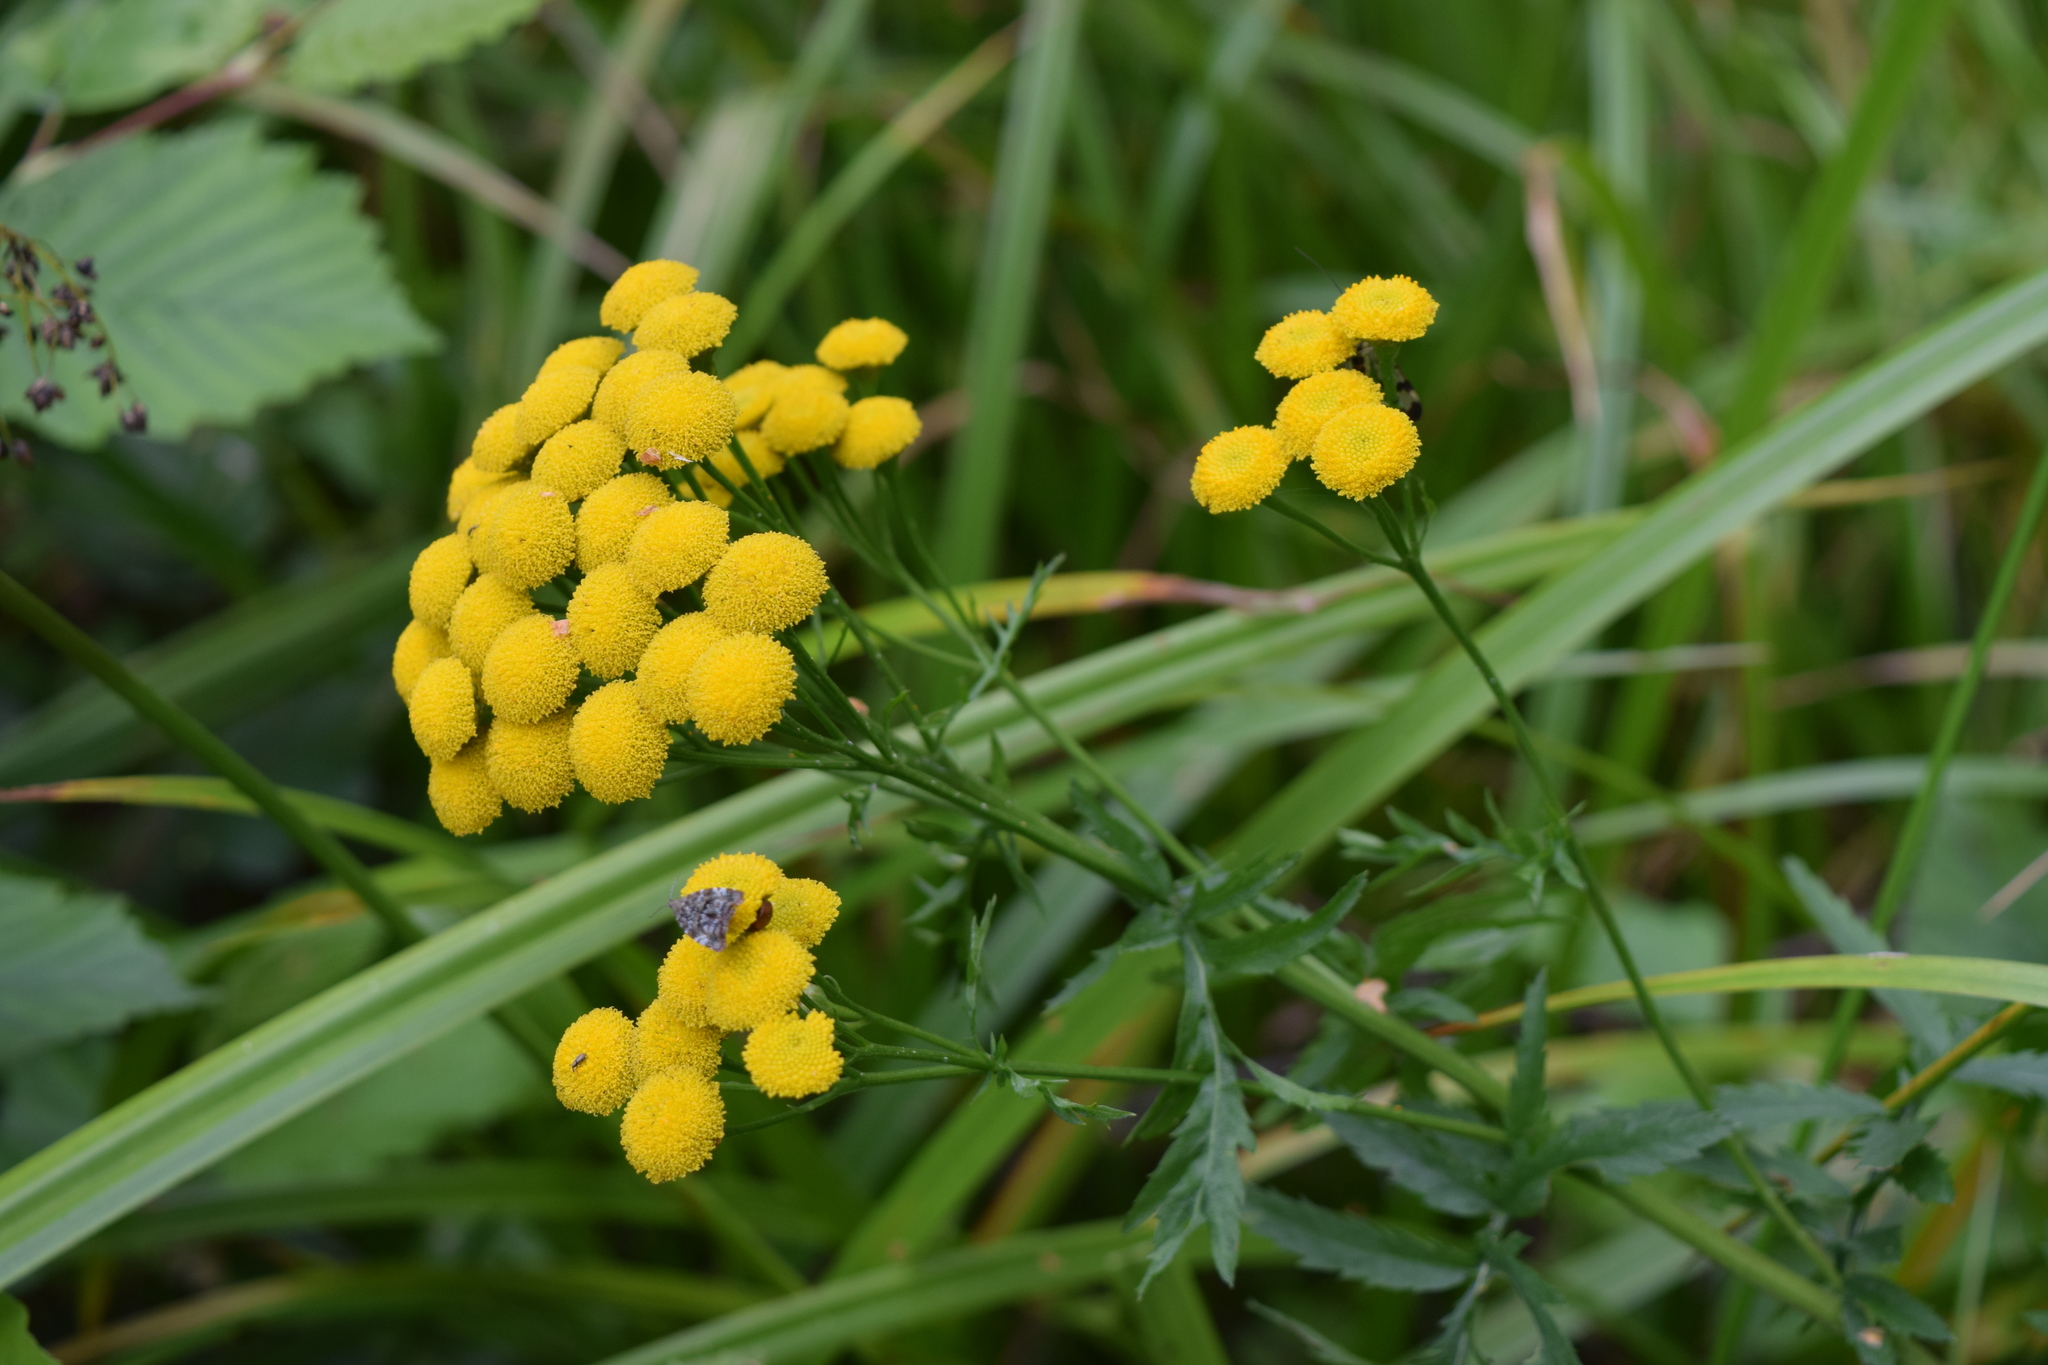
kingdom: Plantae
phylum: Tracheophyta
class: Magnoliopsida
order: Asterales
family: Asteraceae
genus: Tanacetum
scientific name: Tanacetum vulgare
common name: Common tansy
